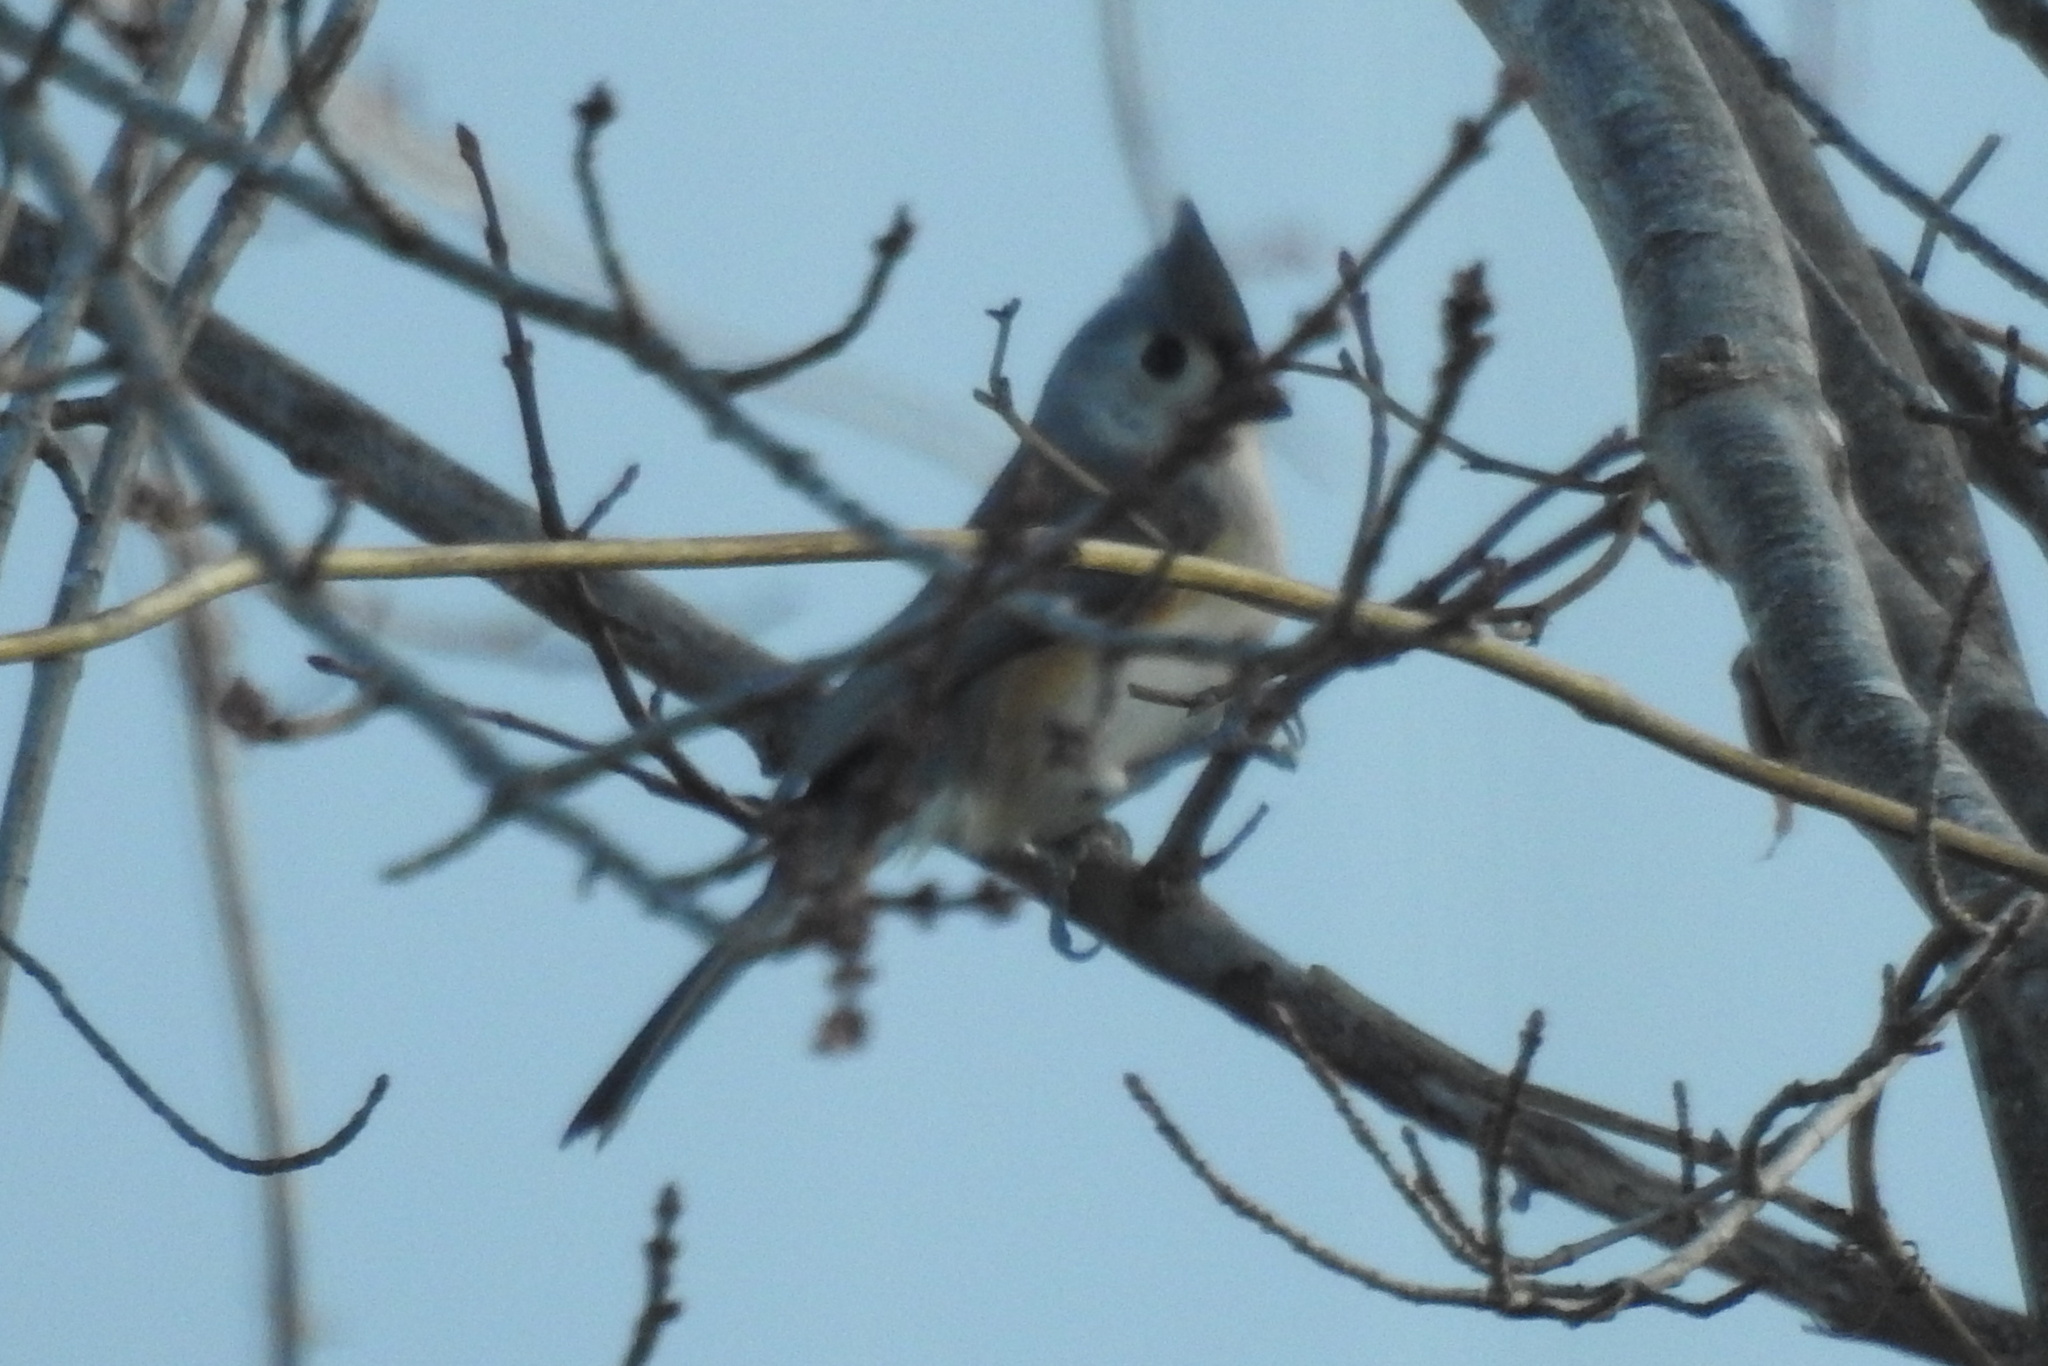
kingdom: Animalia
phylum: Chordata
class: Aves
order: Passeriformes
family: Paridae
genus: Baeolophus
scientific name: Baeolophus bicolor
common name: Tufted titmouse
